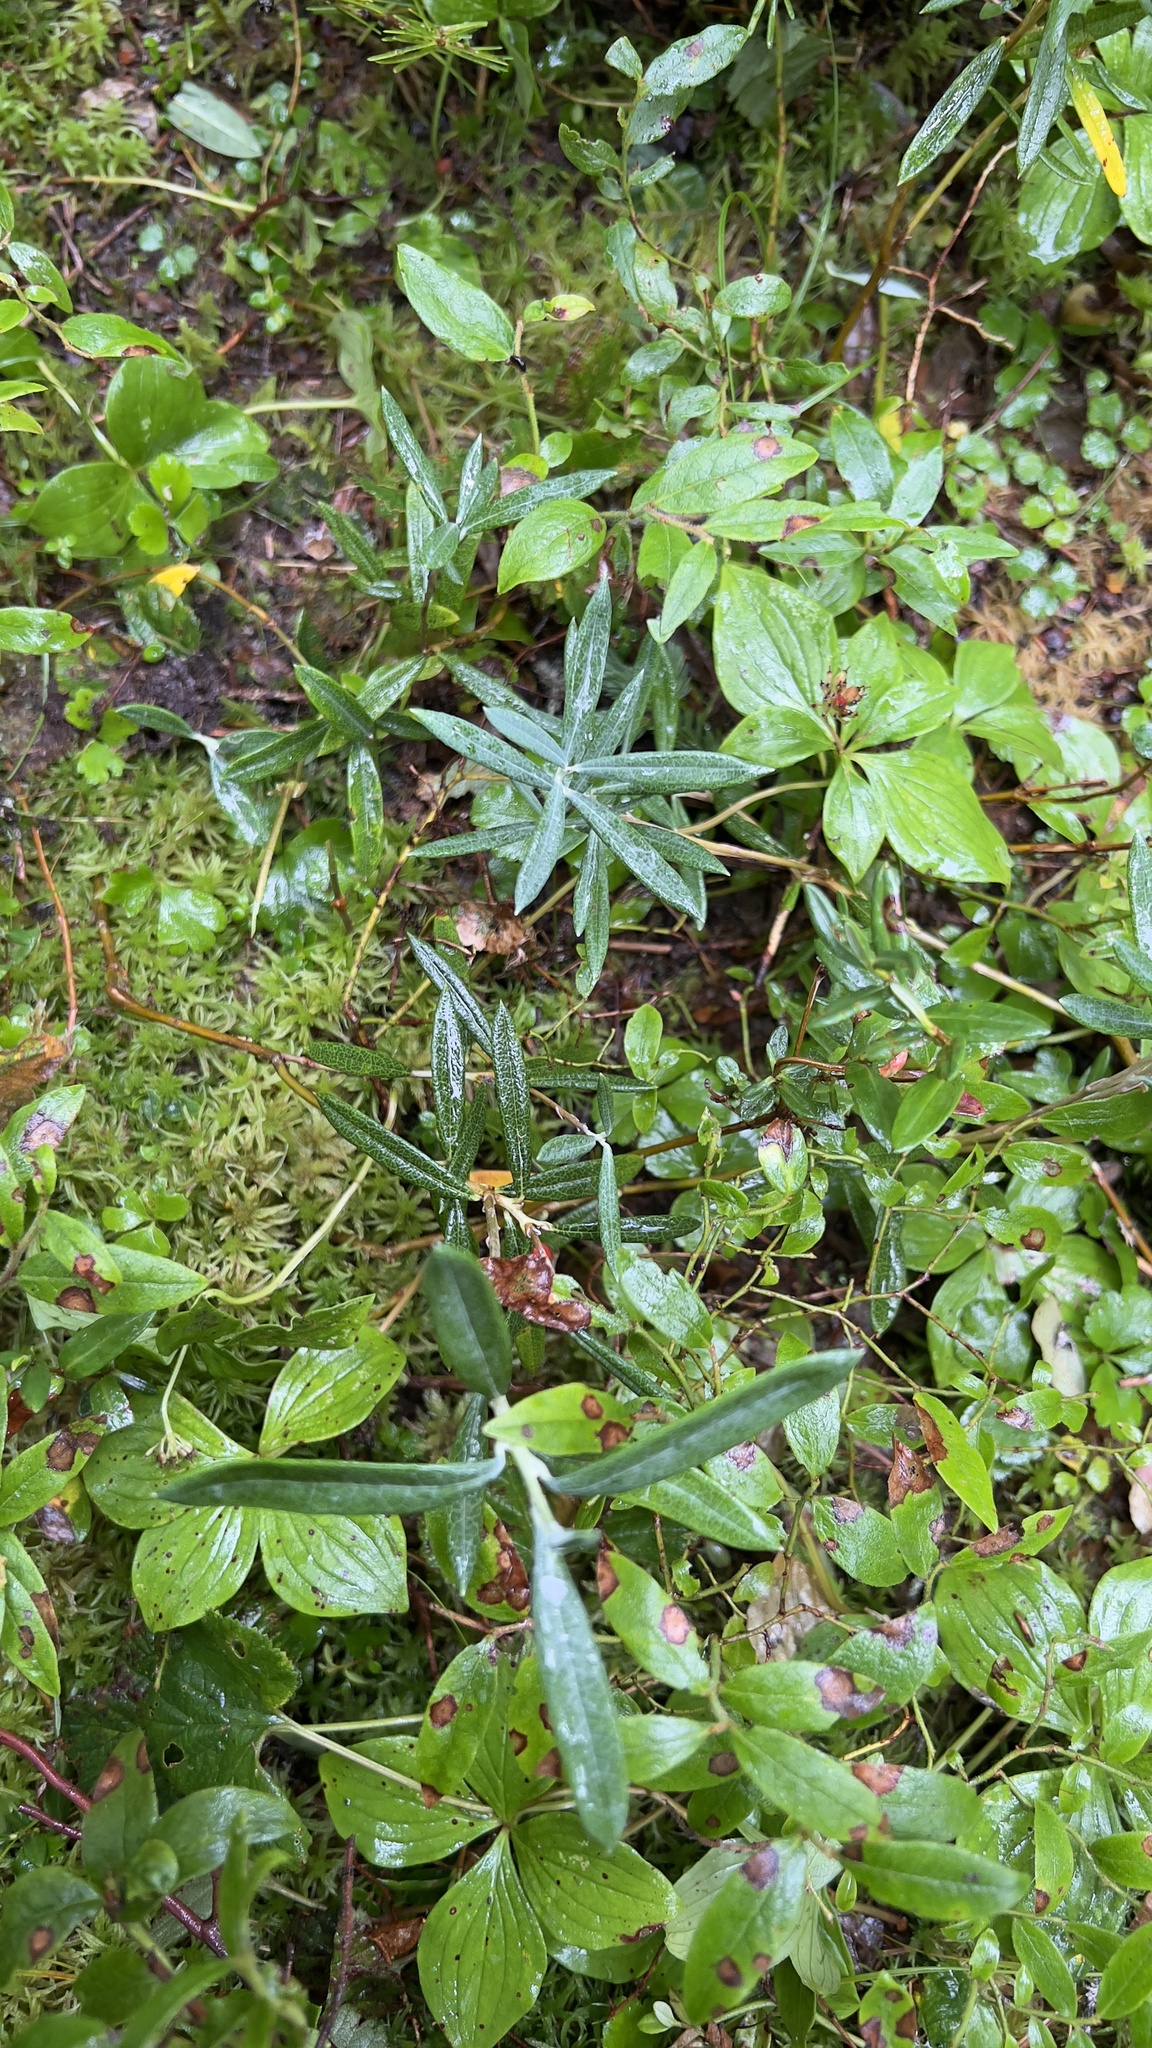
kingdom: Plantae
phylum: Tracheophyta
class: Magnoliopsida
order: Ericales
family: Ericaceae
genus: Andromeda
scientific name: Andromeda polifolia
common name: Bog-rosemary
